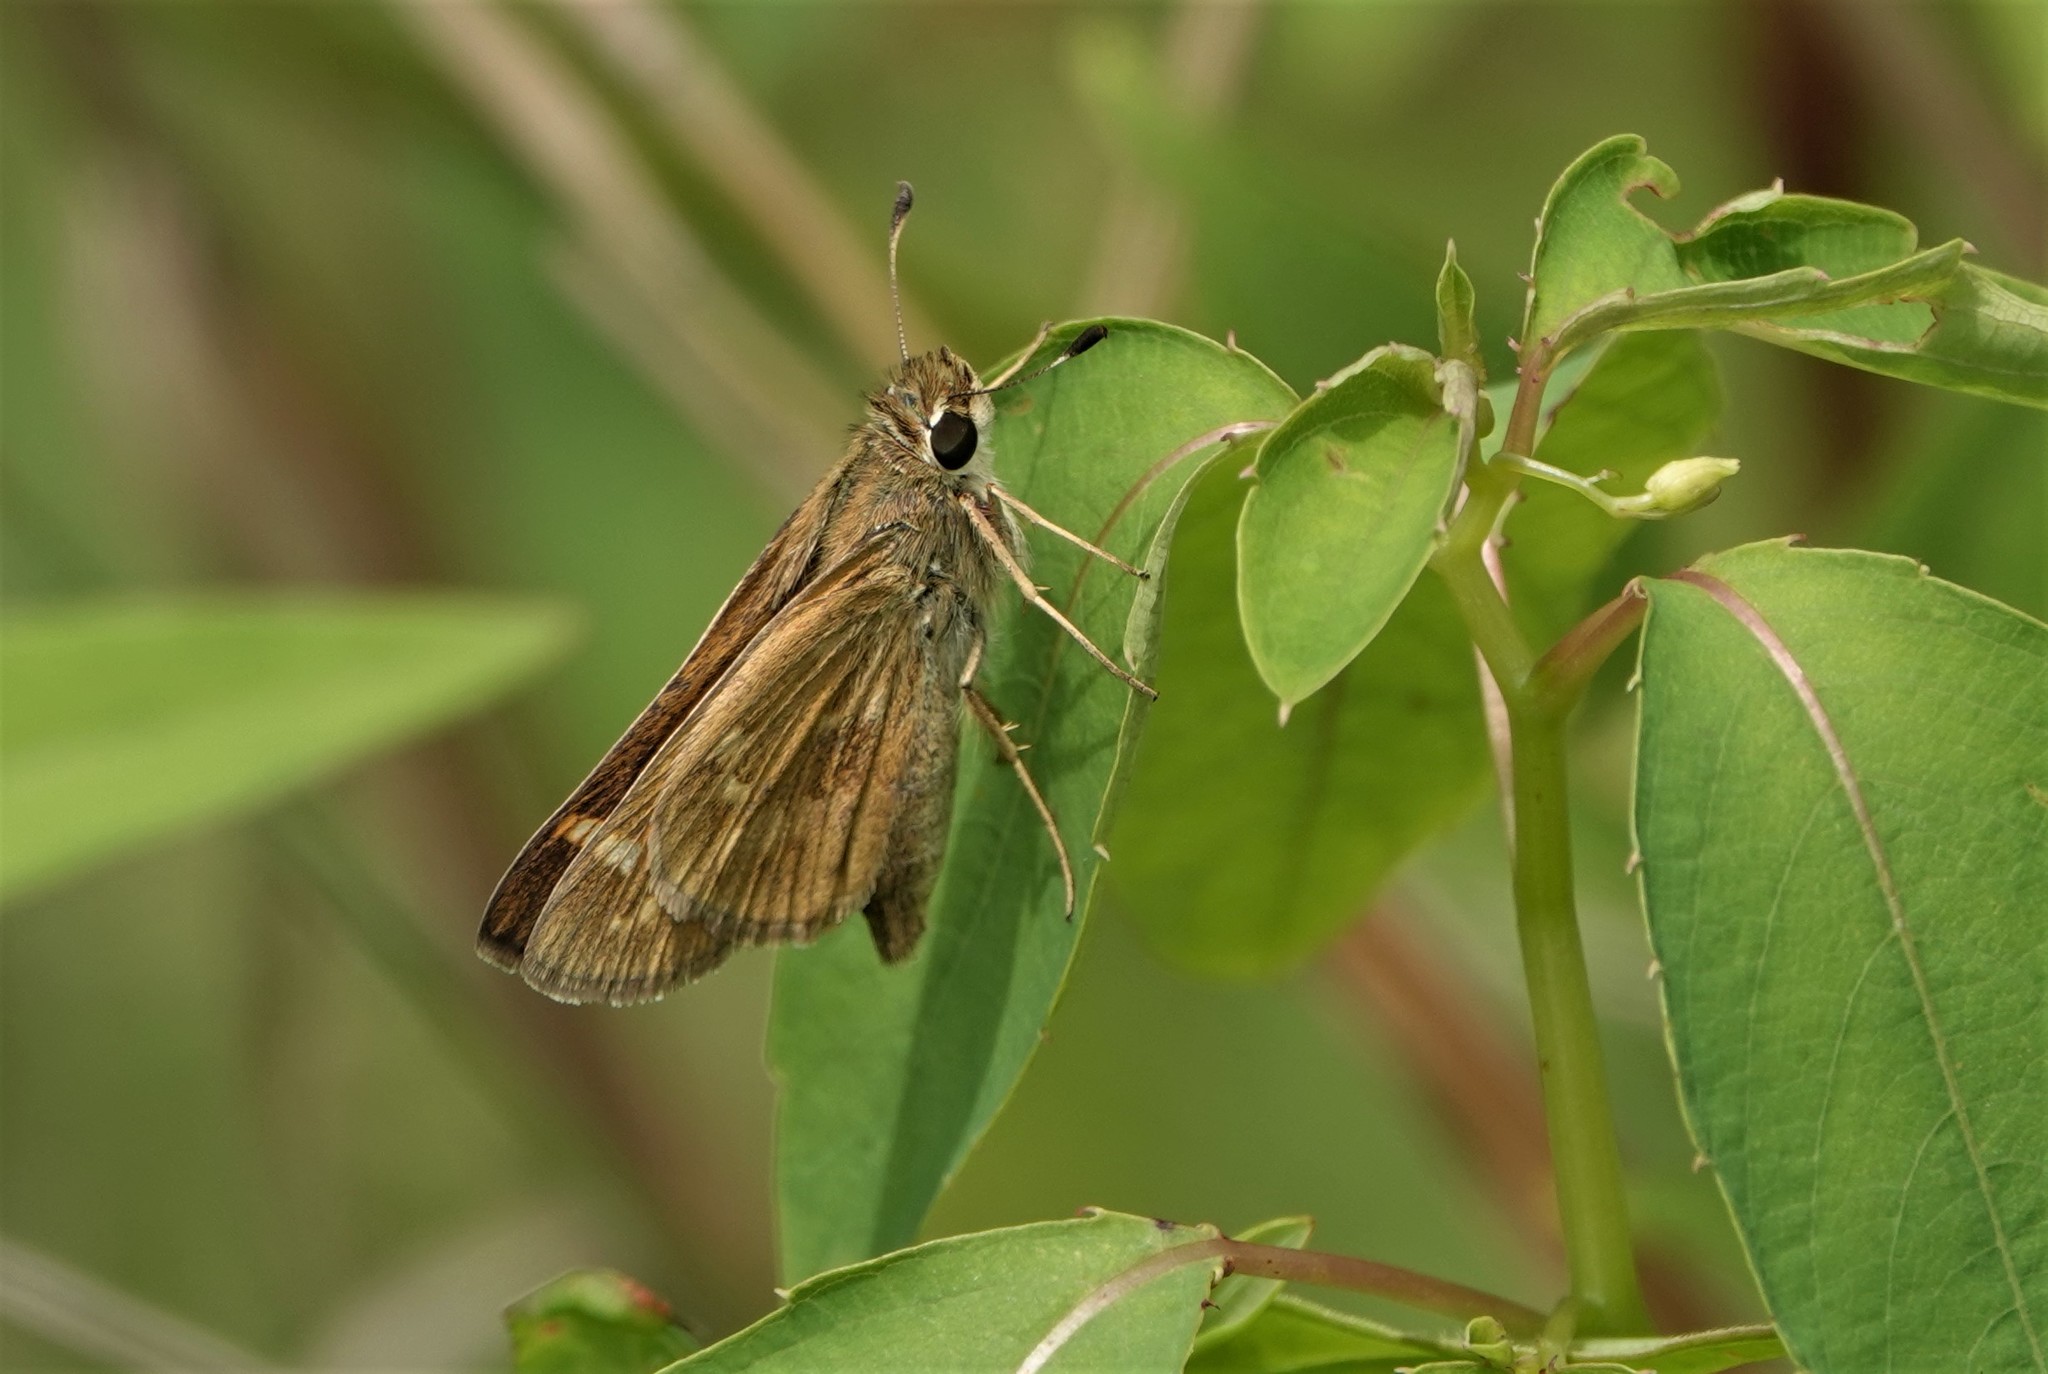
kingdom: Animalia
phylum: Arthropoda
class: Insecta
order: Lepidoptera
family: Hesperiidae
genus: Atalopedes
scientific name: Atalopedes
